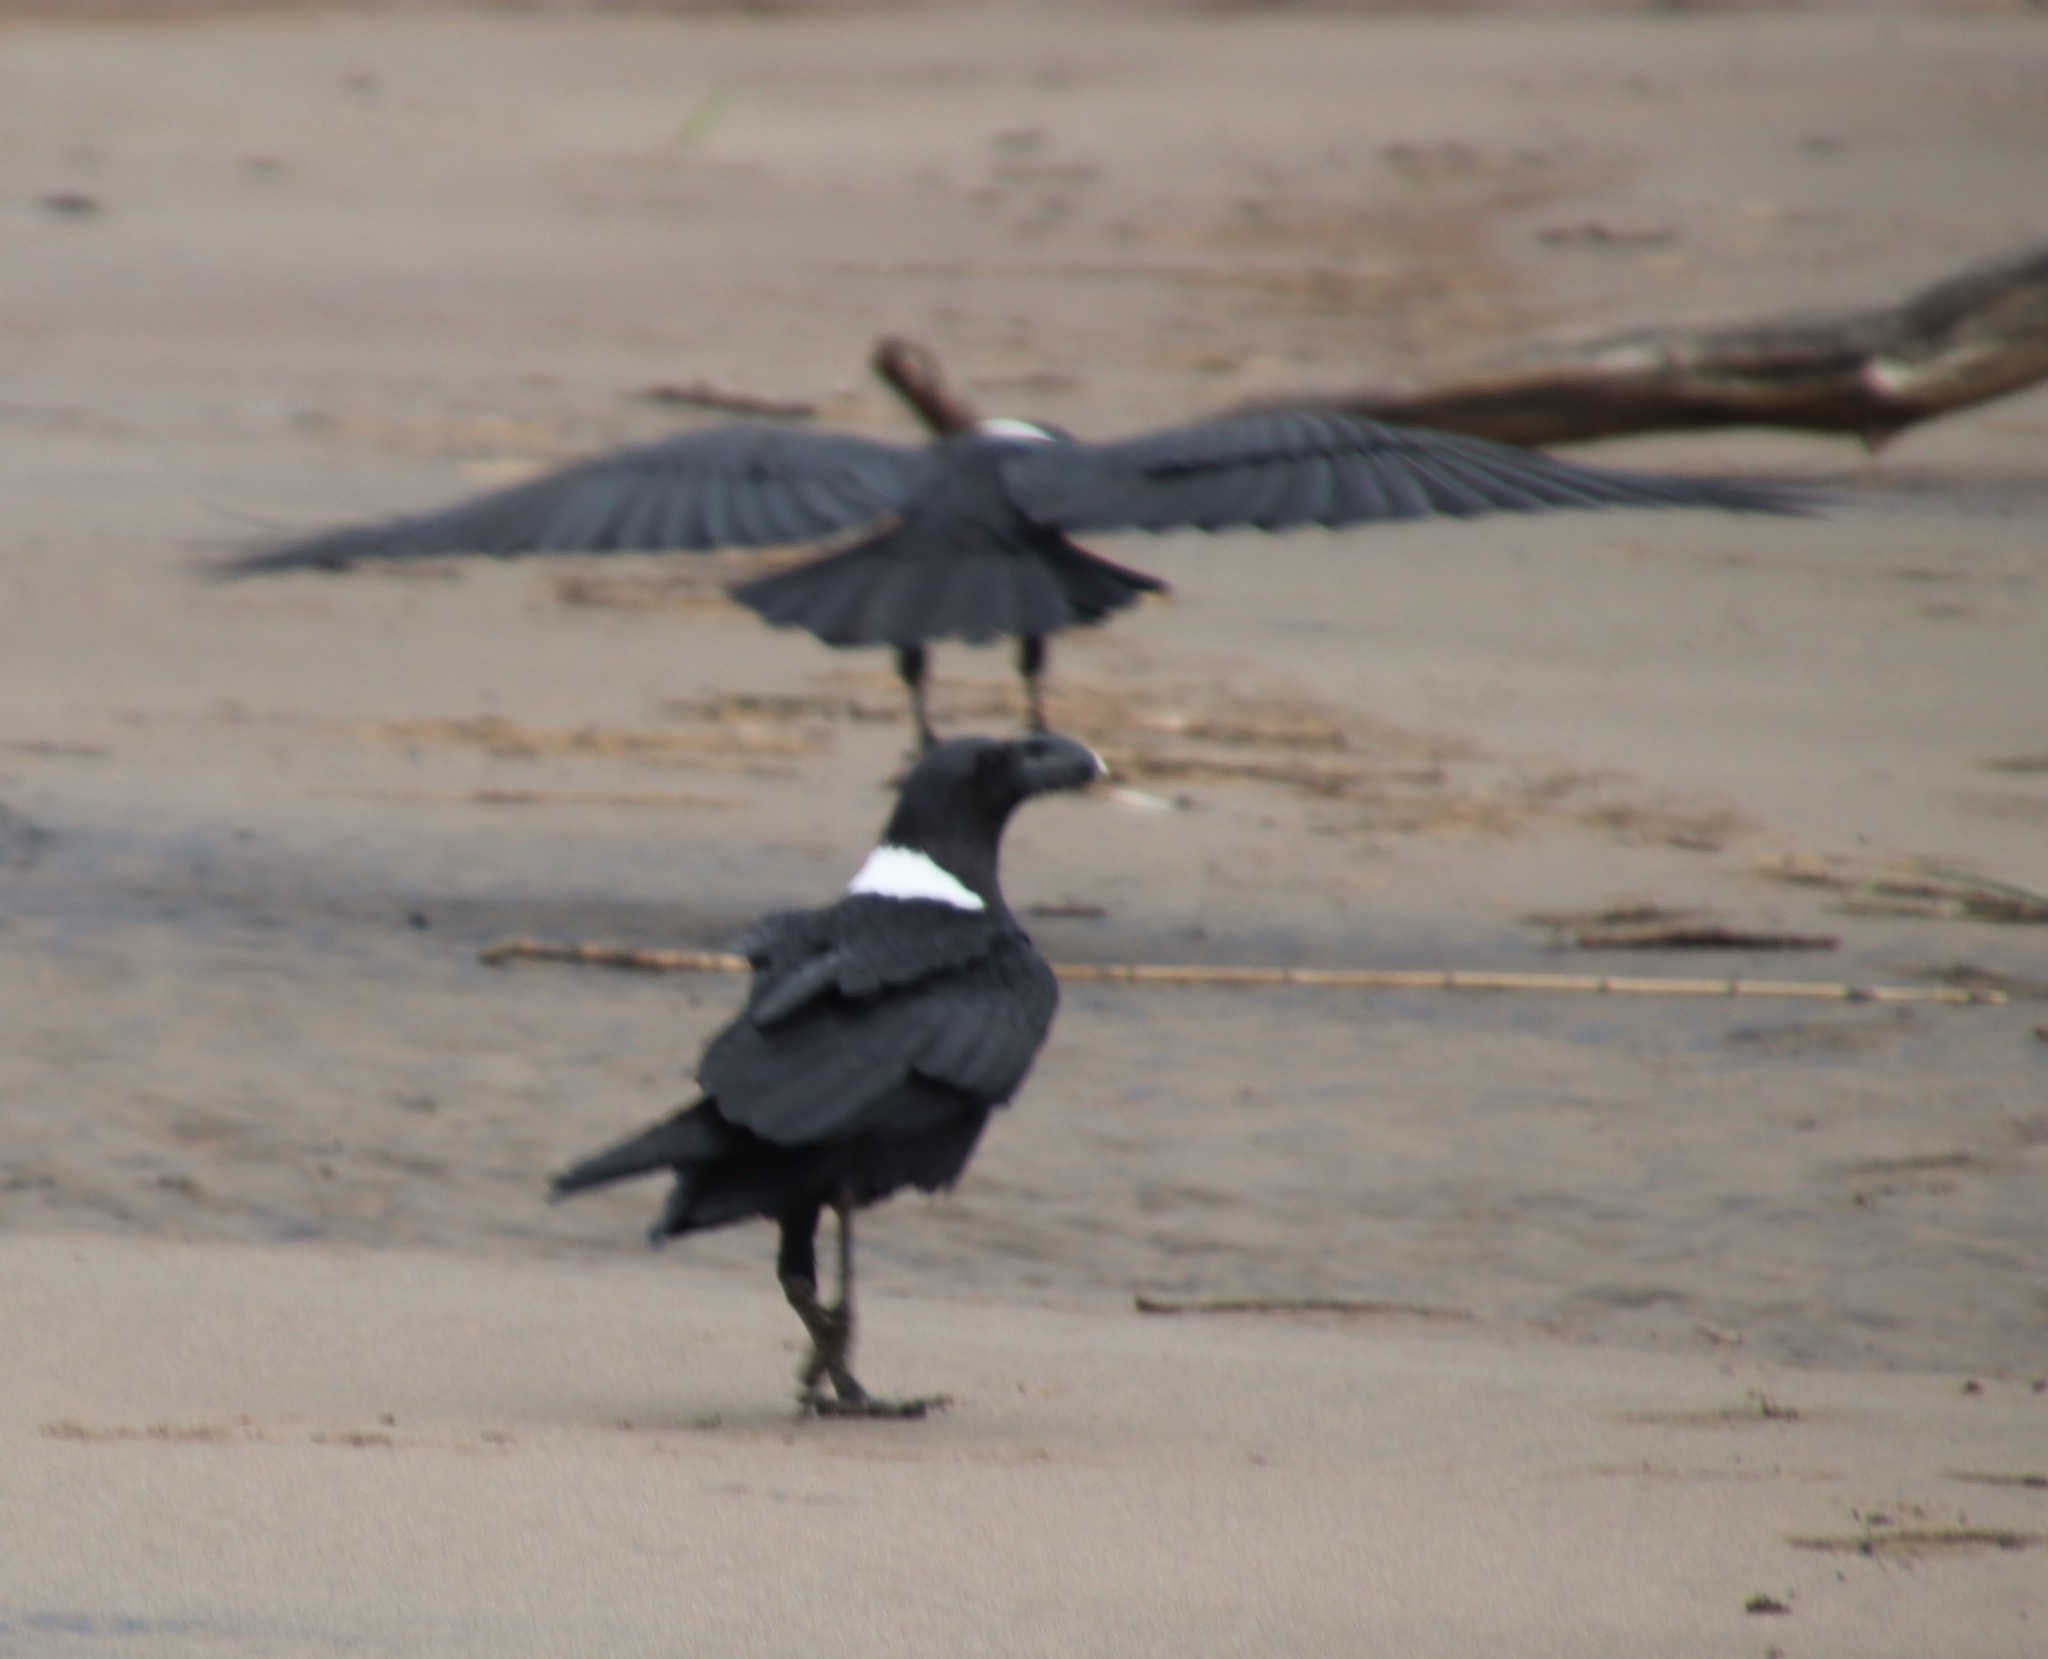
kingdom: Animalia
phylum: Chordata
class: Aves
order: Passeriformes
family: Corvidae
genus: Corvus
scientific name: Corvus albicollis
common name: White-necked raven
